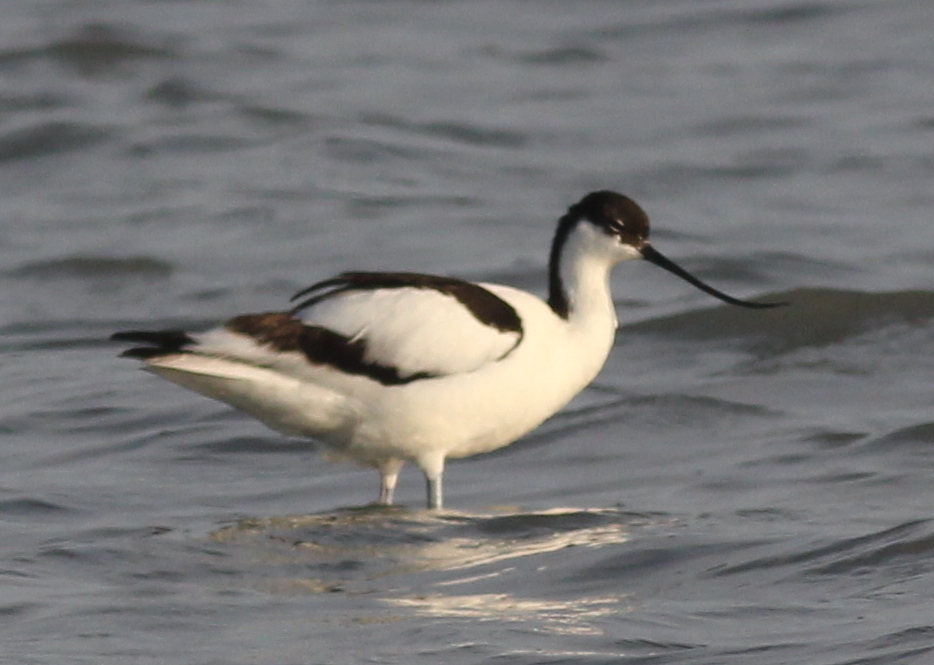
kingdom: Animalia
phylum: Chordata
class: Aves
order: Charadriiformes
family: Recurvirostridae
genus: Recurvirostra
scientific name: Recurvirostra avosetta
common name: Pied avocet
